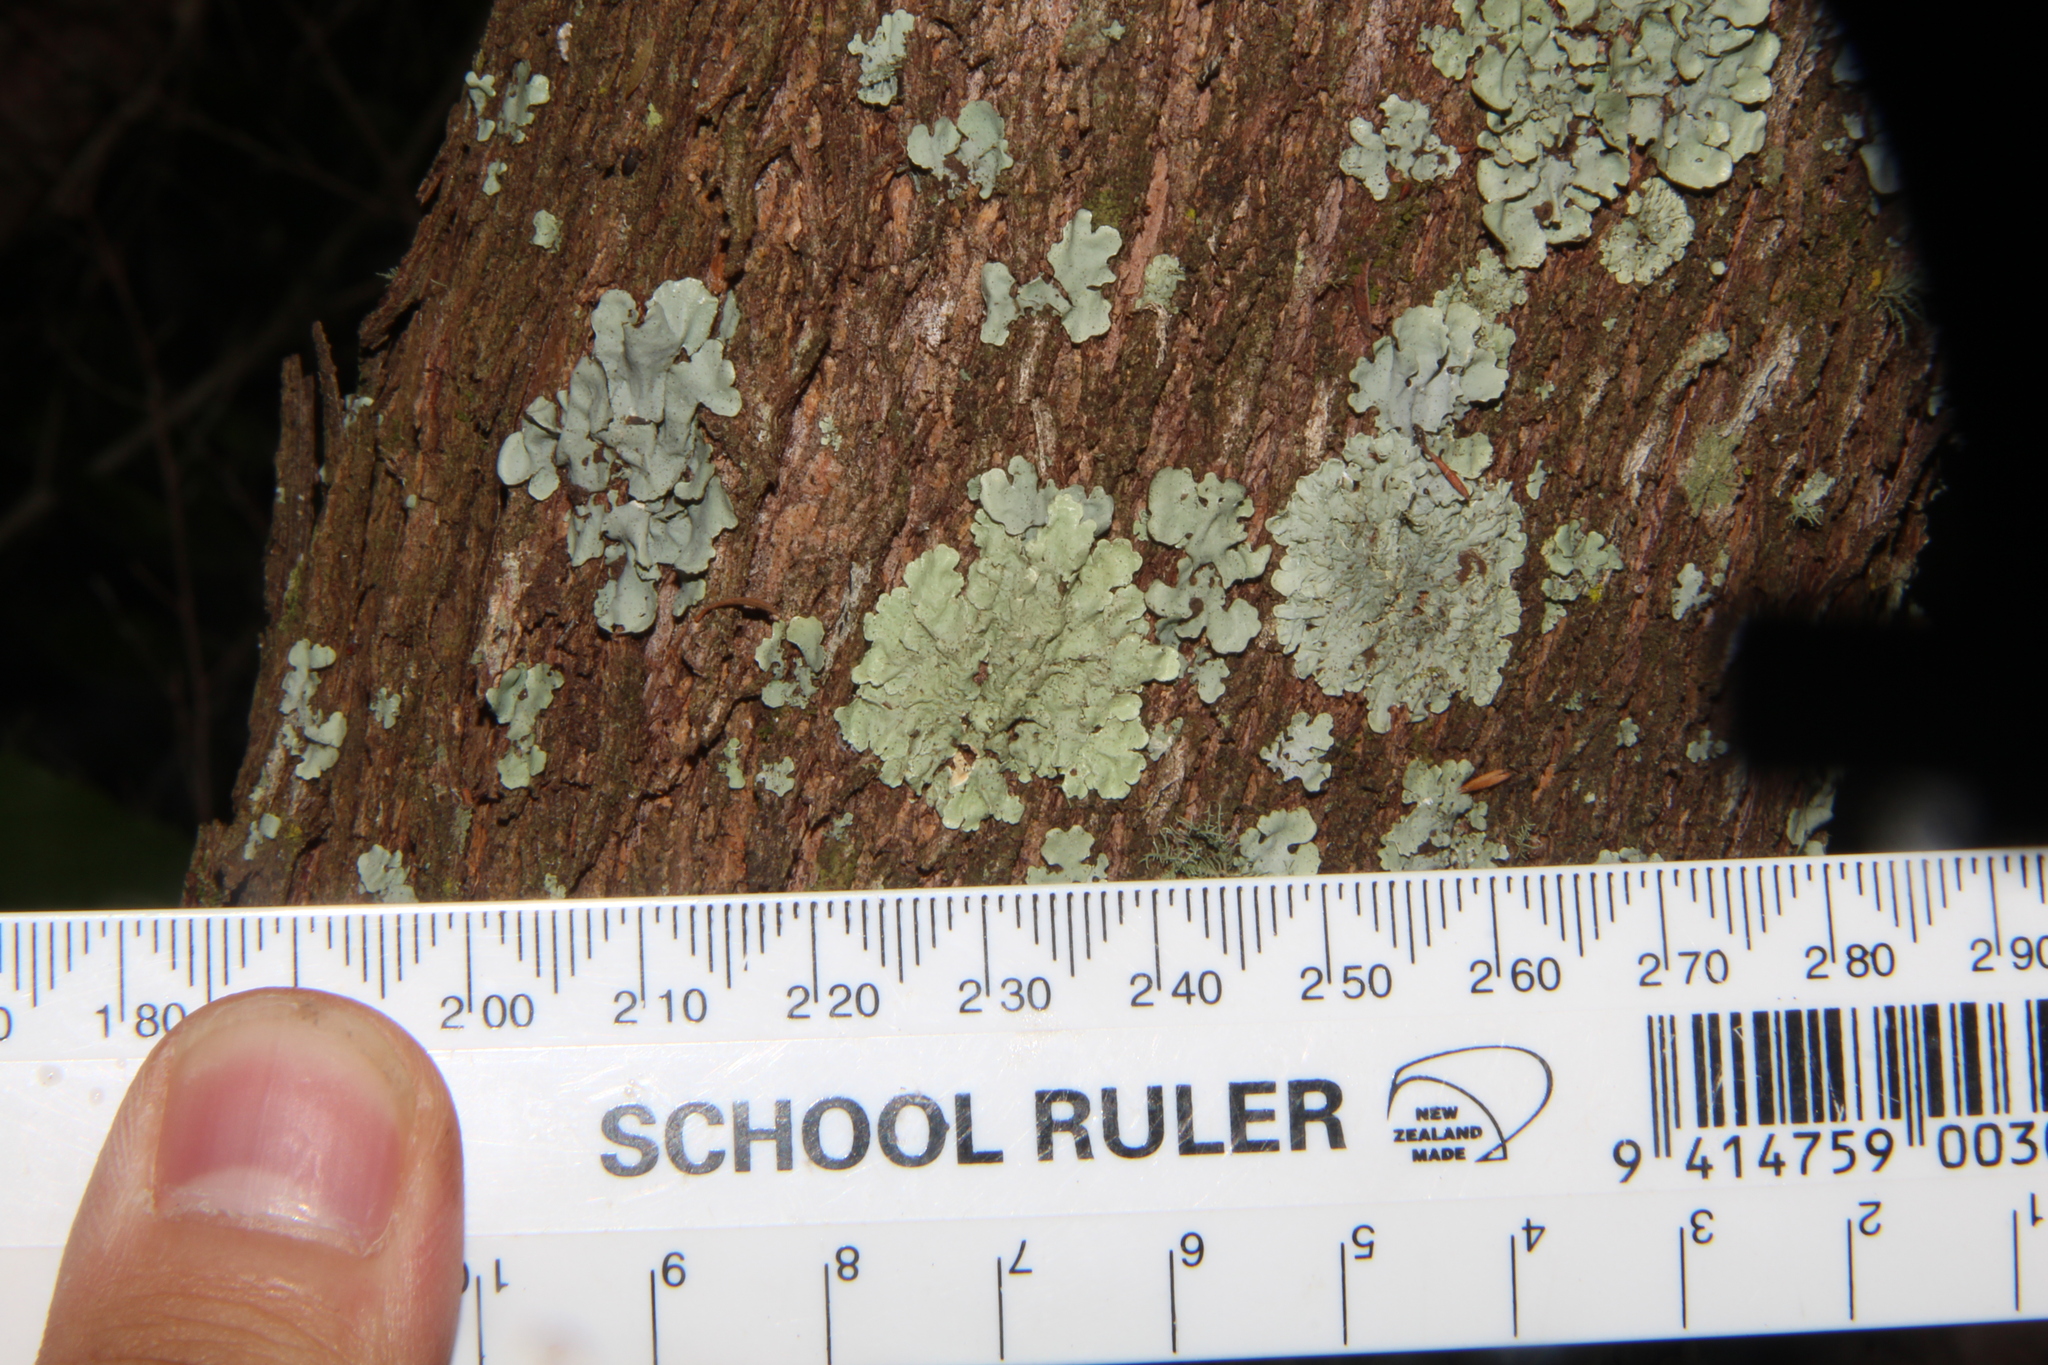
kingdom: Fungi
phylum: Ascomycota
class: Lecanoromycetes
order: Caliciales
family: Caliciaceae
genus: Dirinaria
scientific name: Dirinaria applanata
